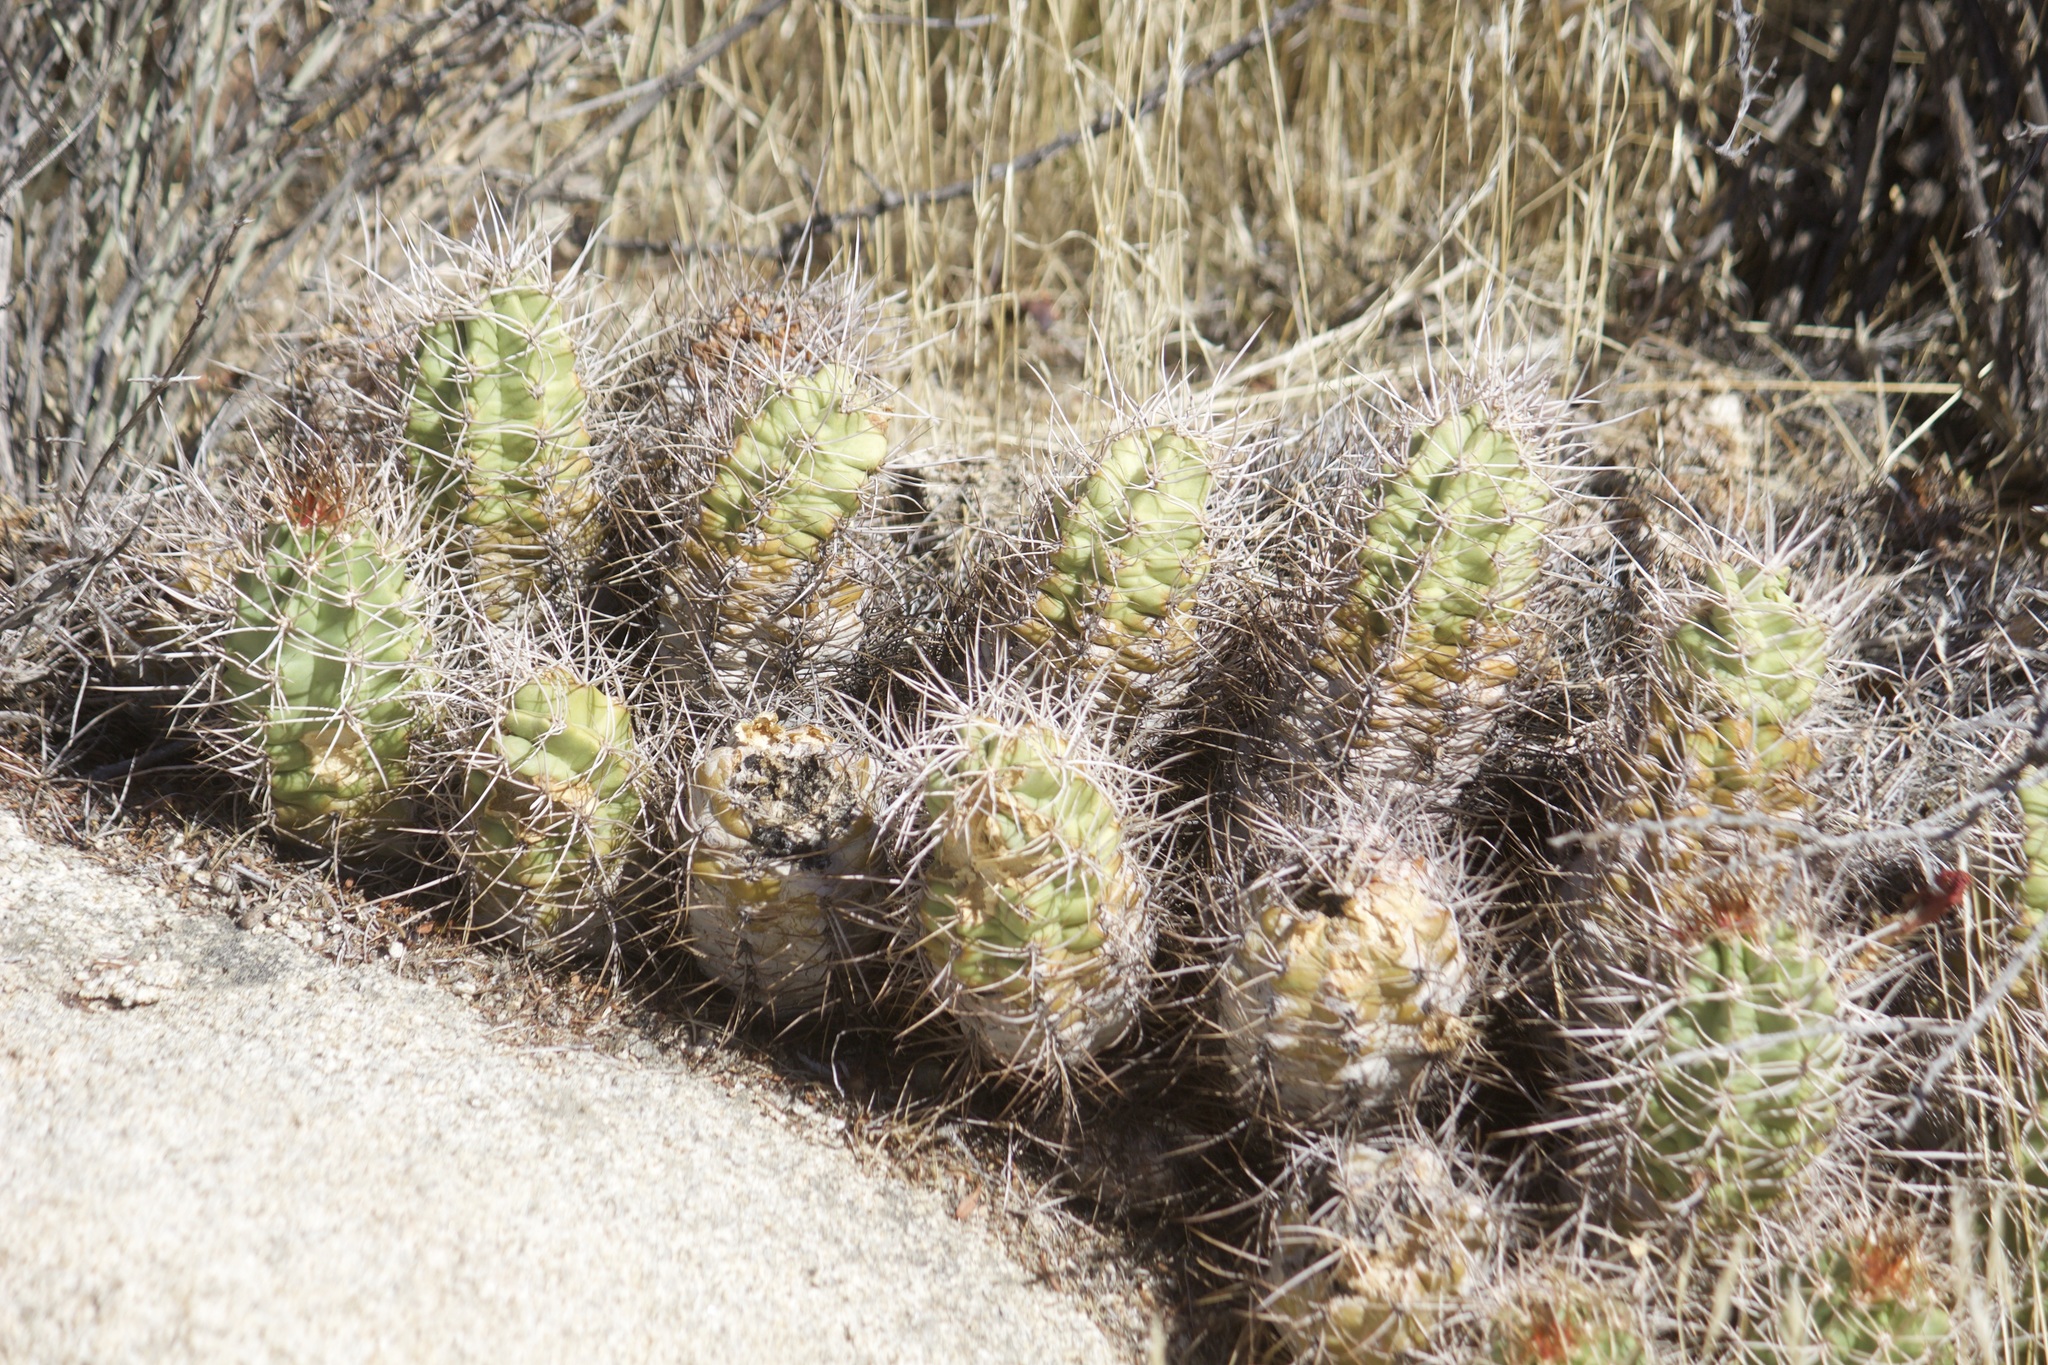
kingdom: Plantae
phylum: Tracheophyta
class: Magnoliopsida
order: Caryophyllales
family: Cactaceae
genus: Echinocereus
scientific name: Echinocereus triglochidiatus
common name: Claretcup hedgehog
